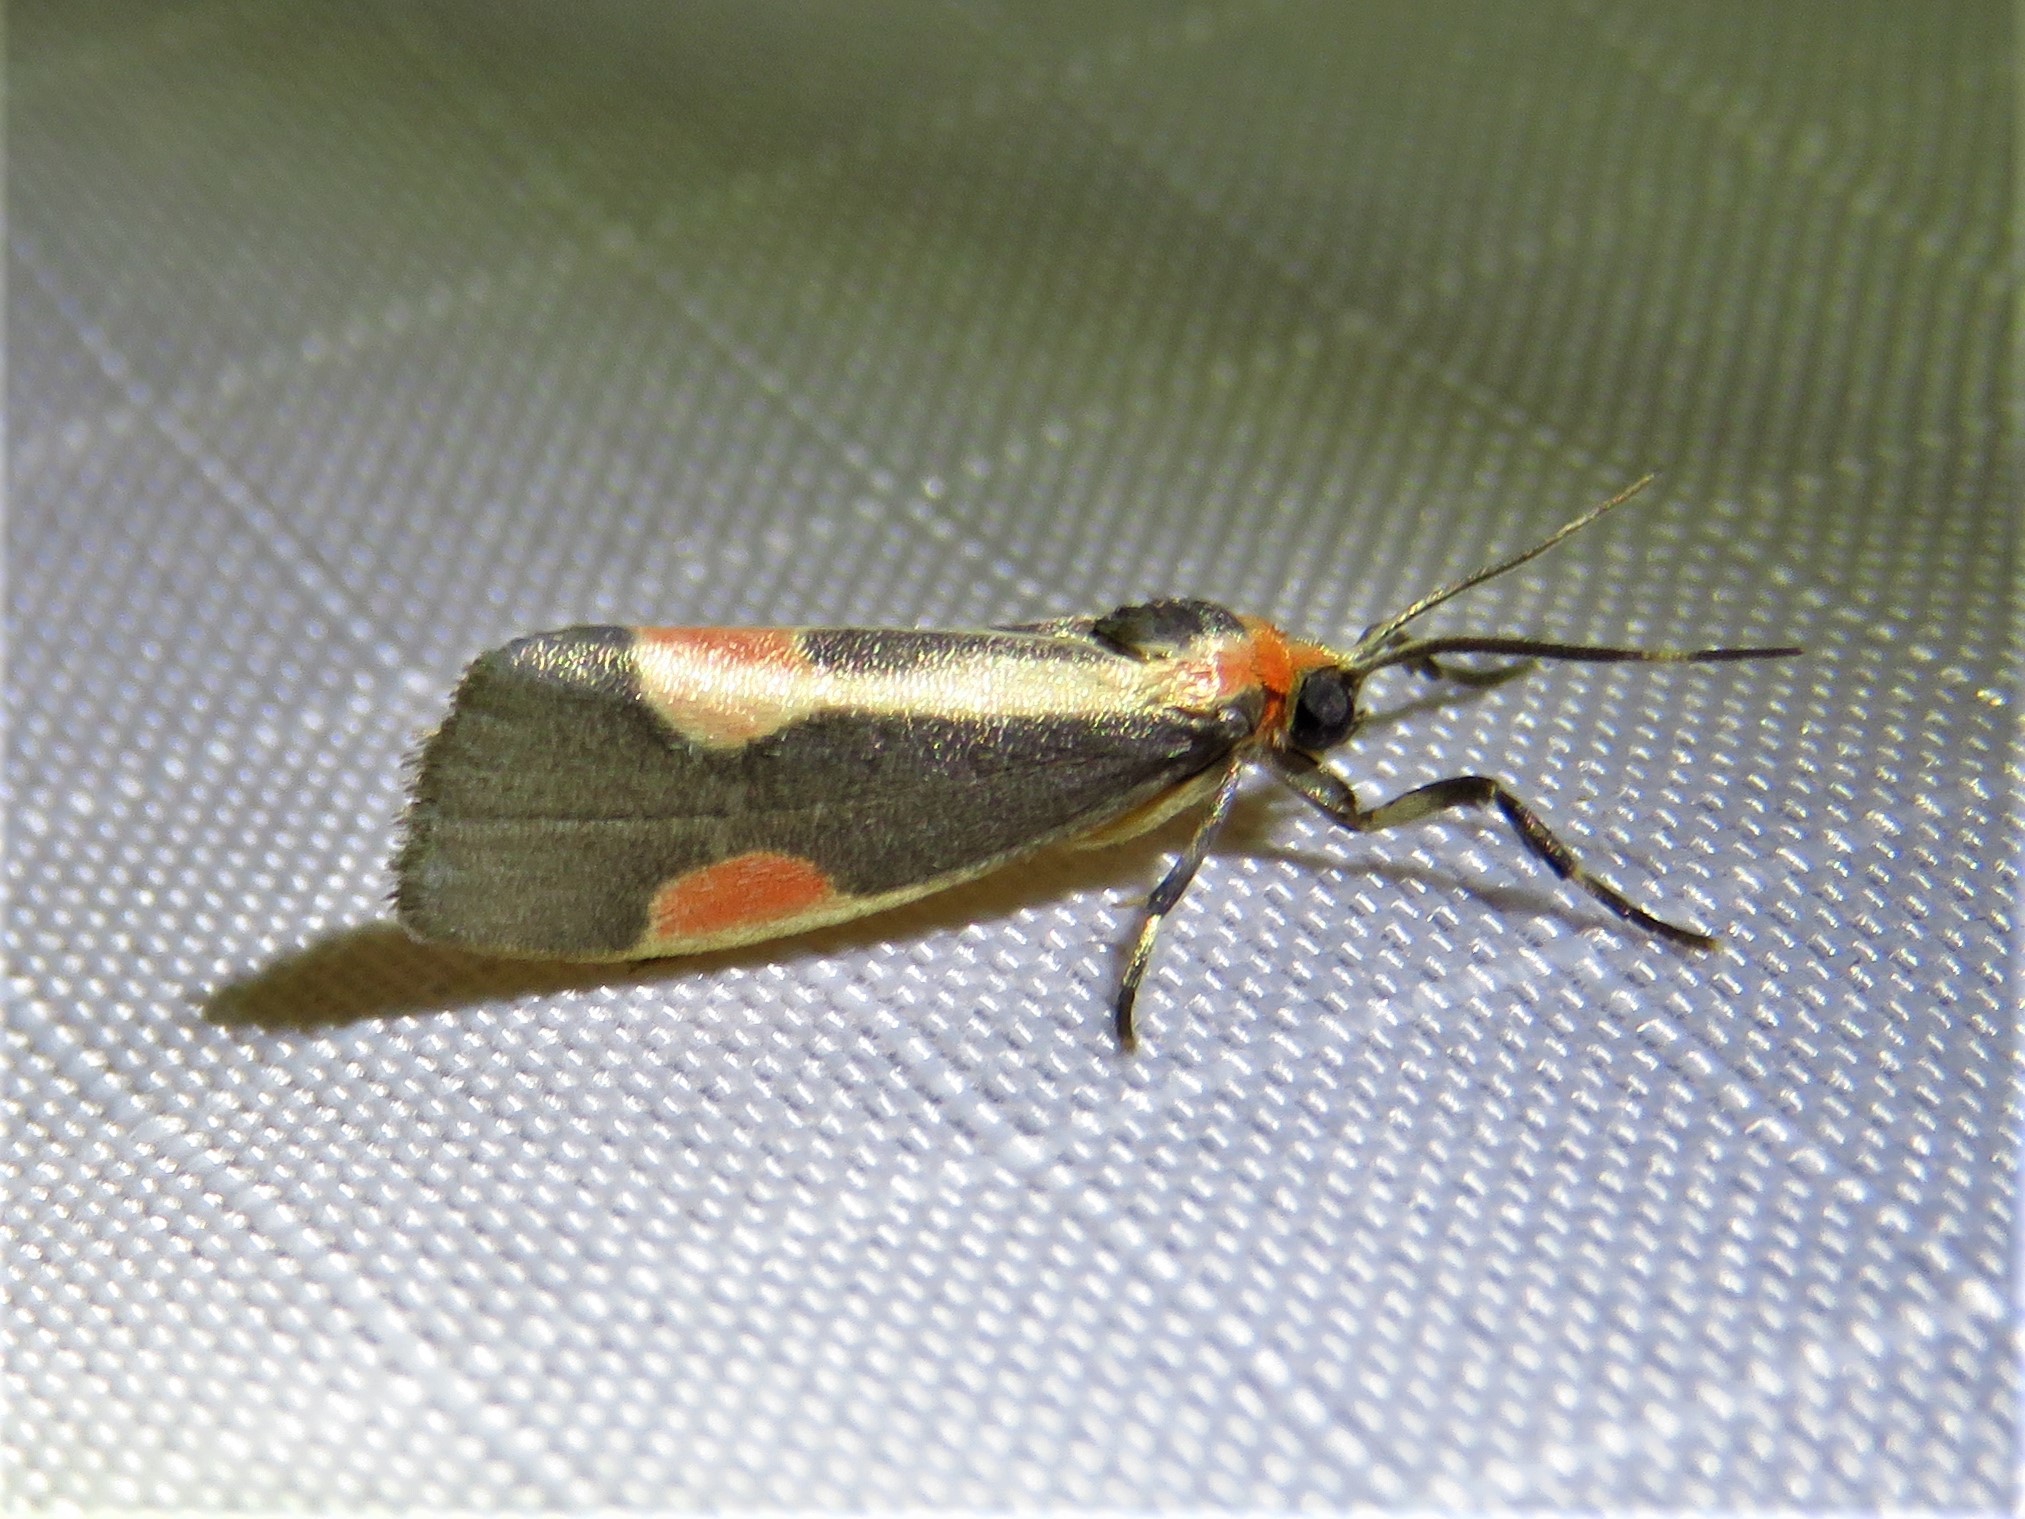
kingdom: Animalia
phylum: Arthropoda
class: Insecta
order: Lepidoptera
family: Erebidae
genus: Cisthene
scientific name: Cisthene packardii
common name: Packard's lichen moth
